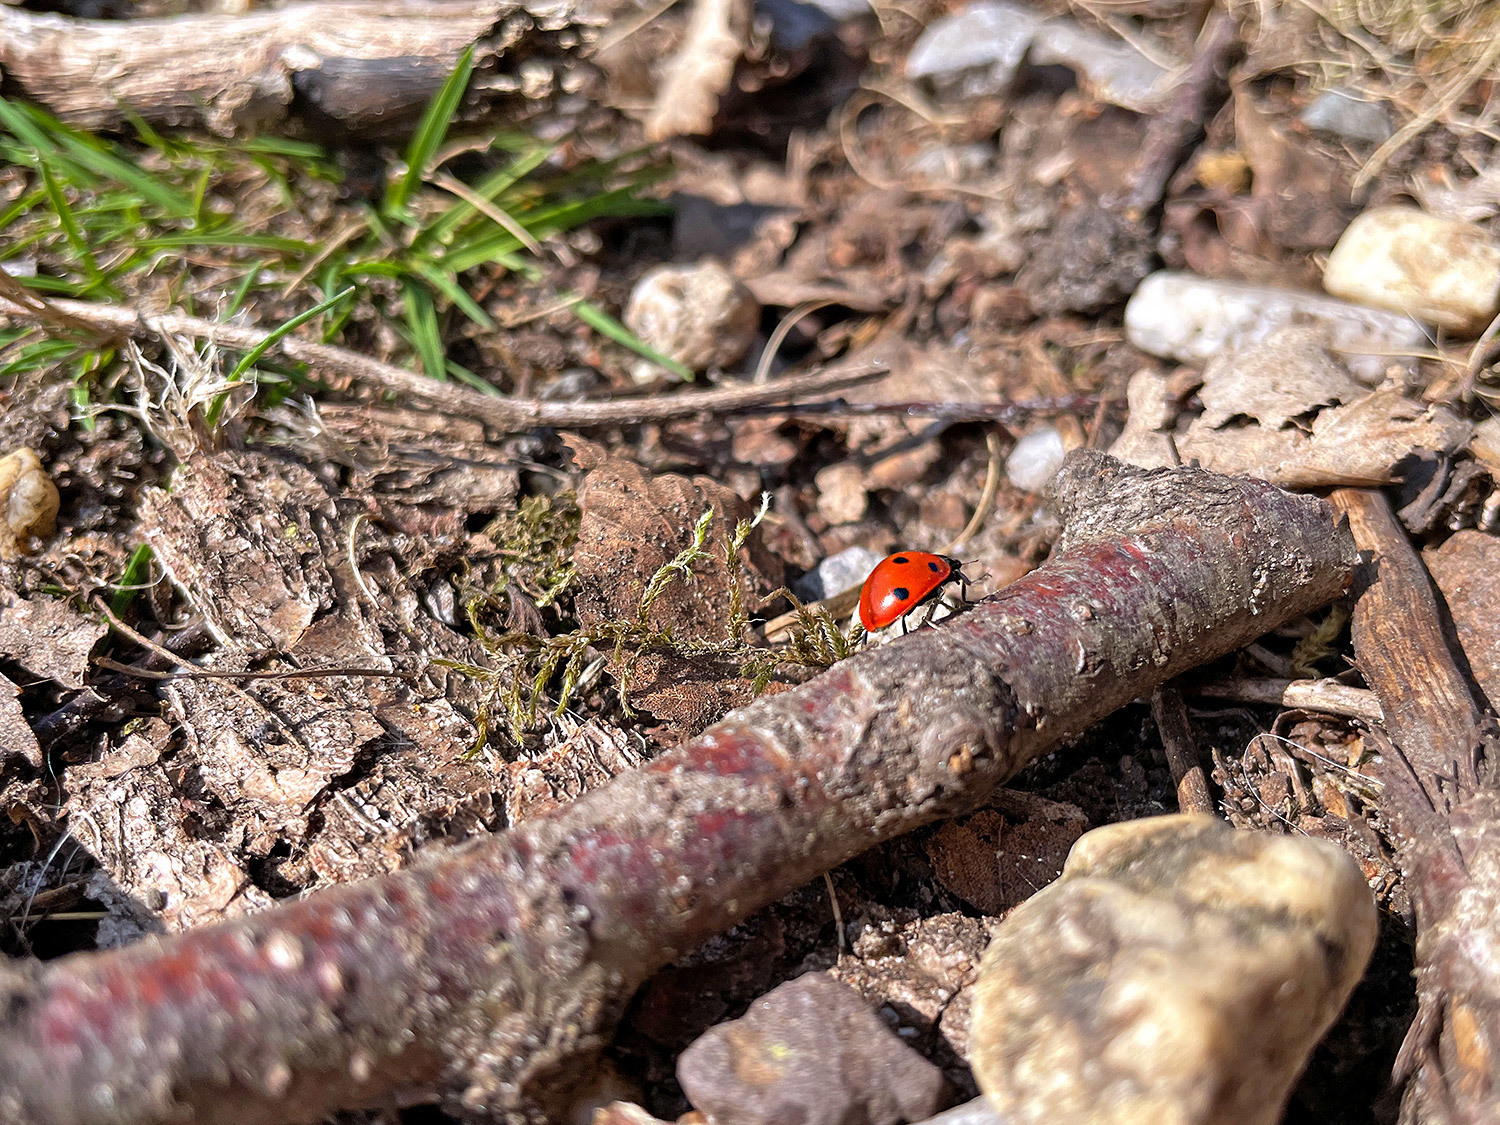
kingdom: Animalia
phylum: Arthropoda
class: Insecta
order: Coleoptera
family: Coccinellidae
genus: Coccinella
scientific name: Coccinella septempunctata
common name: Sevenspotted lady beetle
